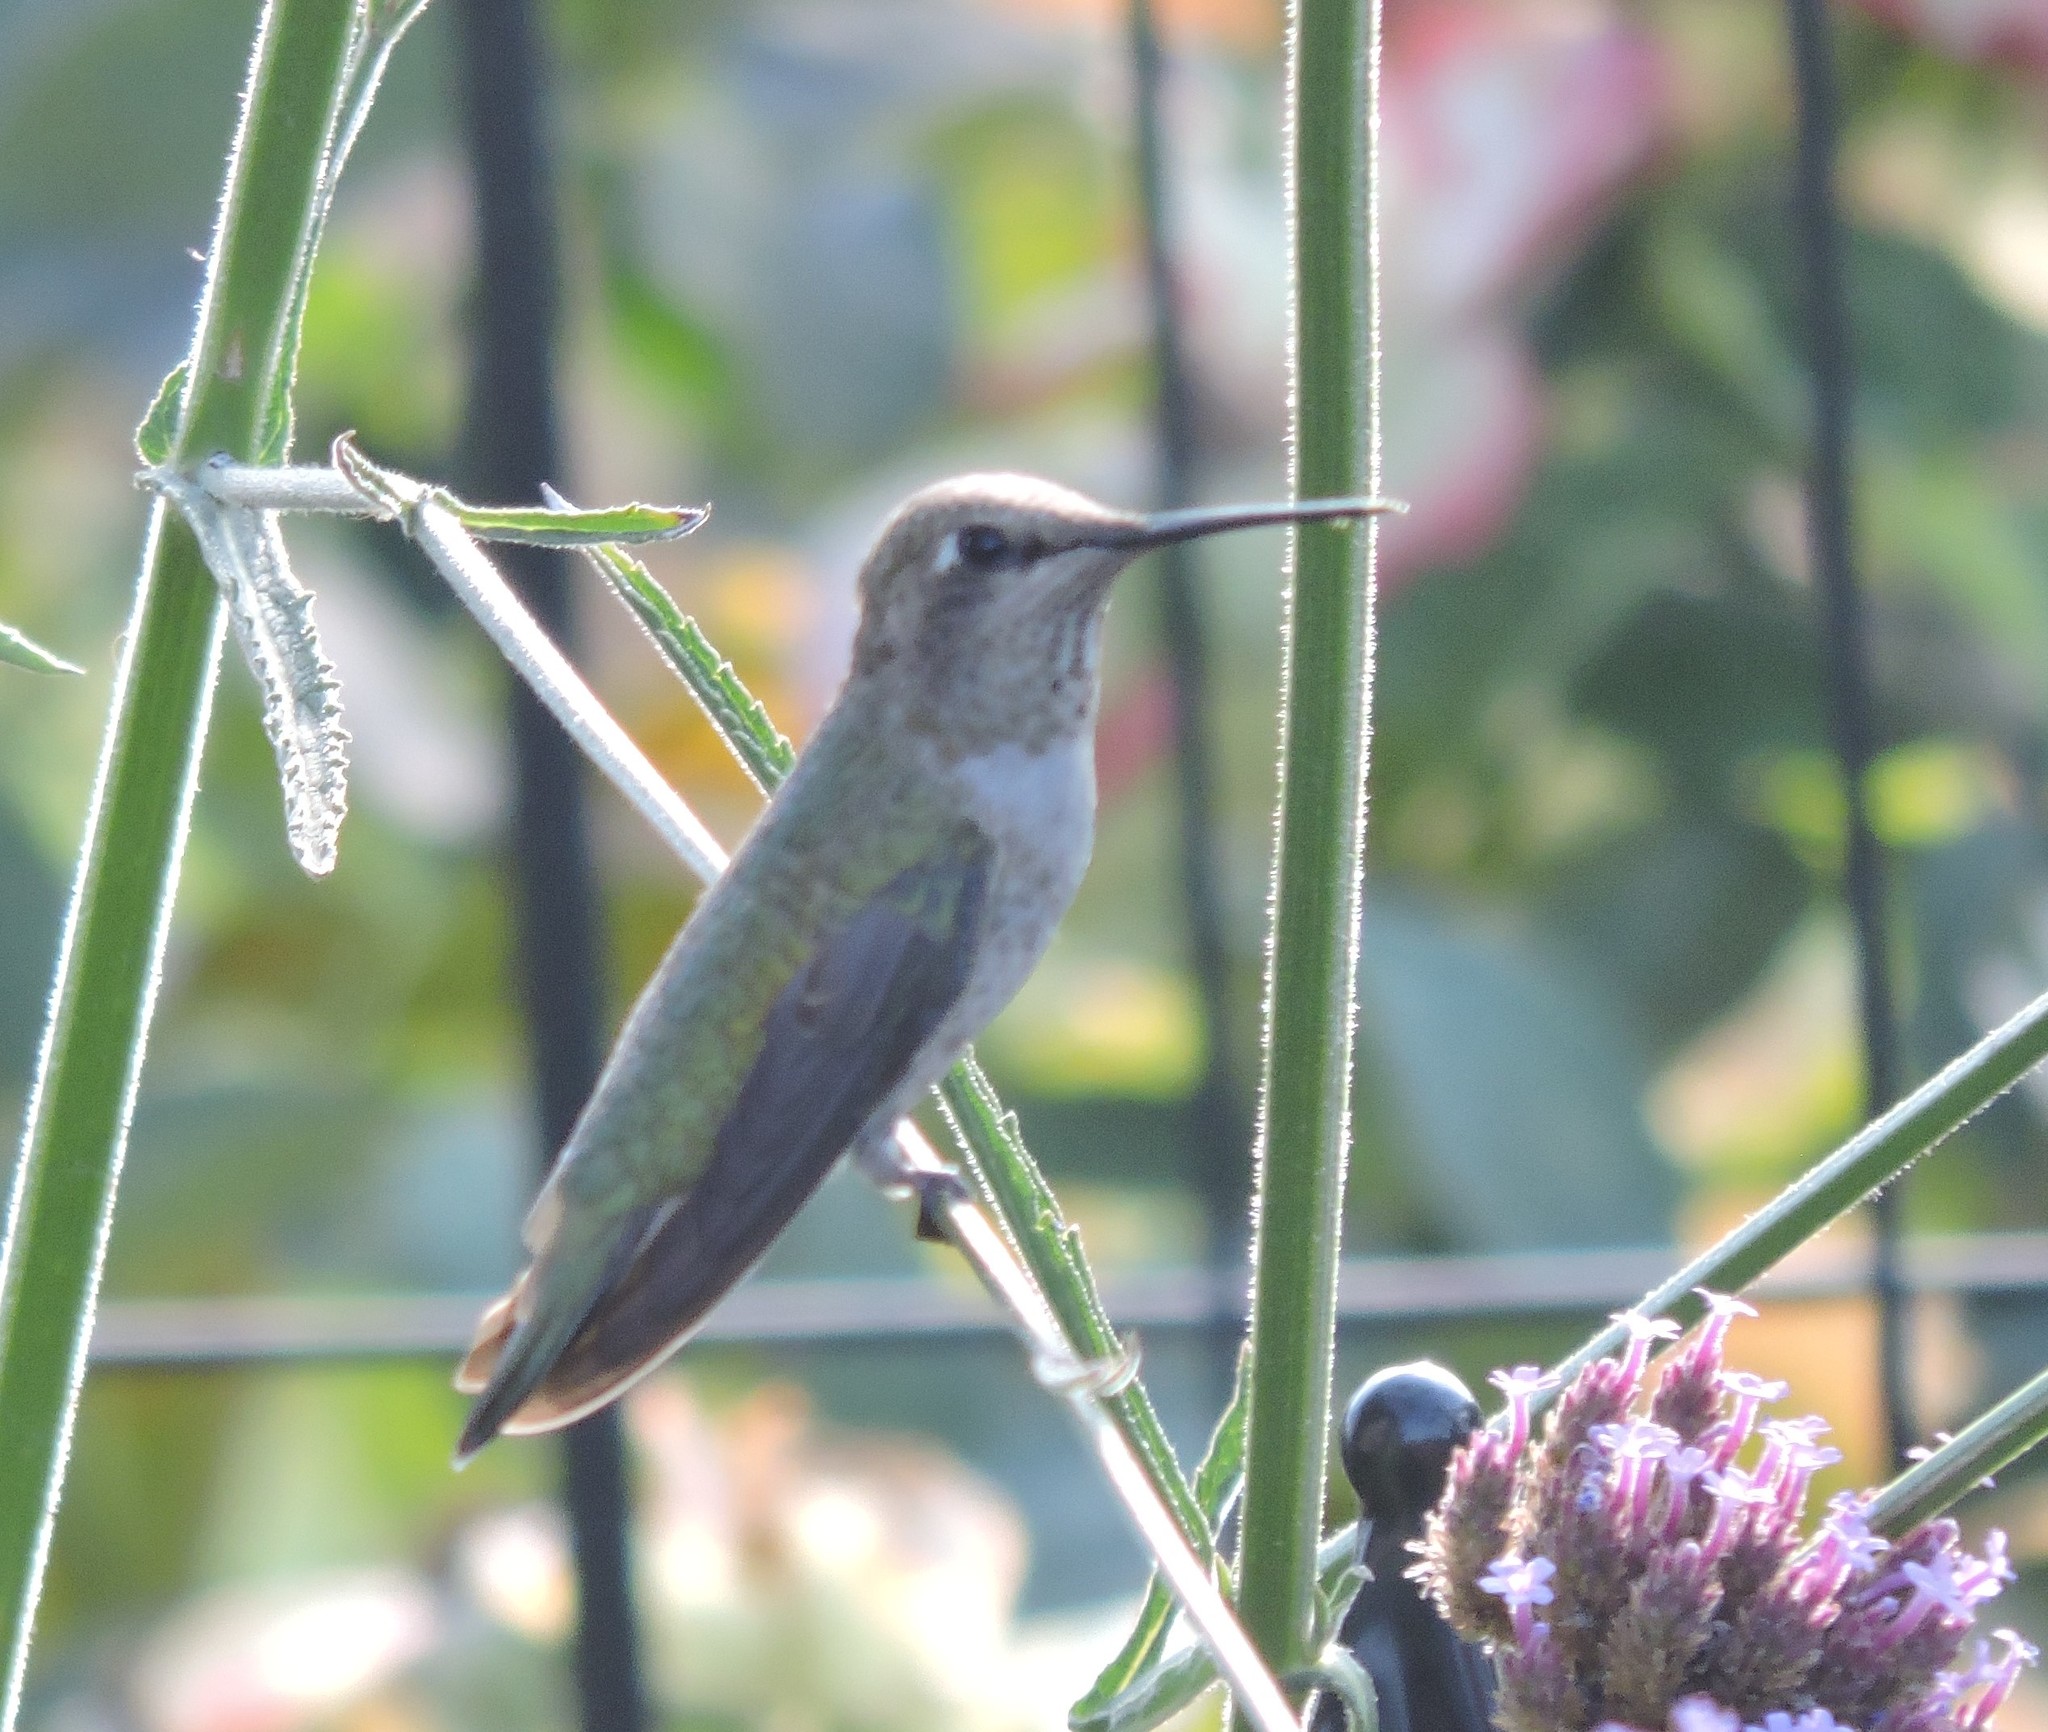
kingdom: Animalia
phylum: Chordata
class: Aves
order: Apodiformes
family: Trochilidae
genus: Calypte
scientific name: Calypte anna
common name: Anna's hummingbird
